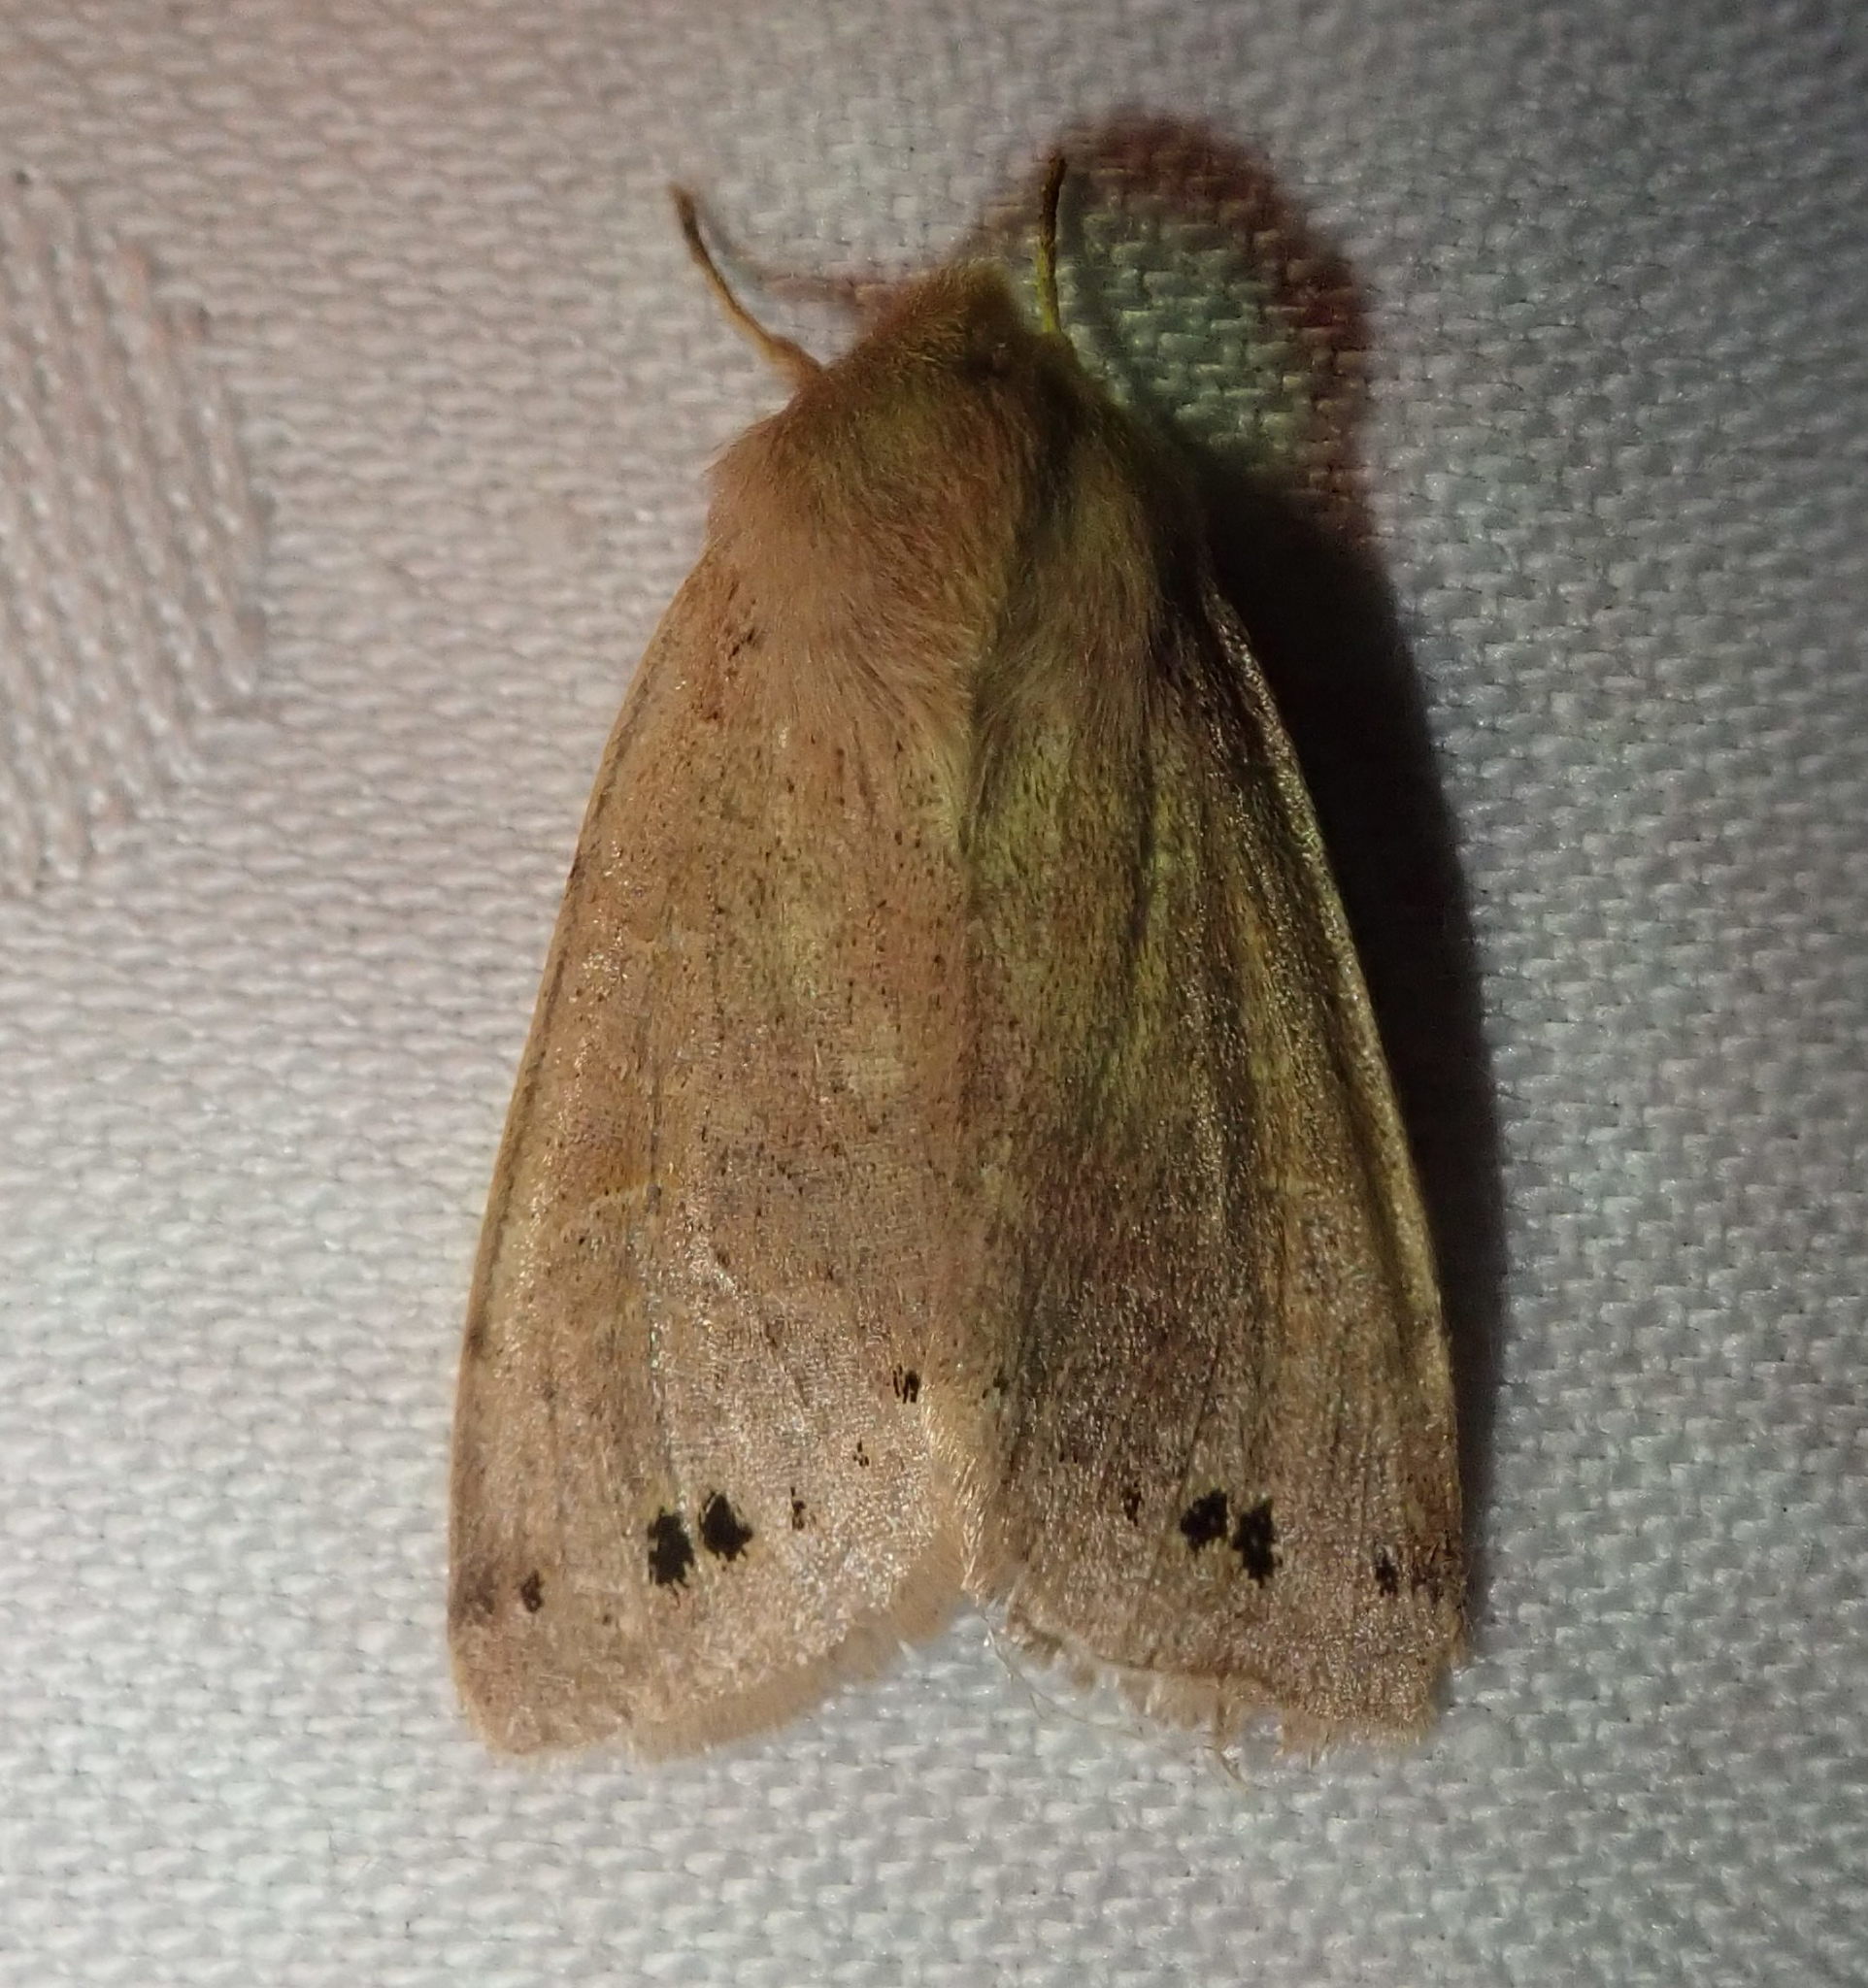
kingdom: Animalia
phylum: Arthropoda
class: Insecta
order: Lepidoptera
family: Noctuidae
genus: Anorthoa
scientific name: Anorthoa munda
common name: Twin-spotted quaker
